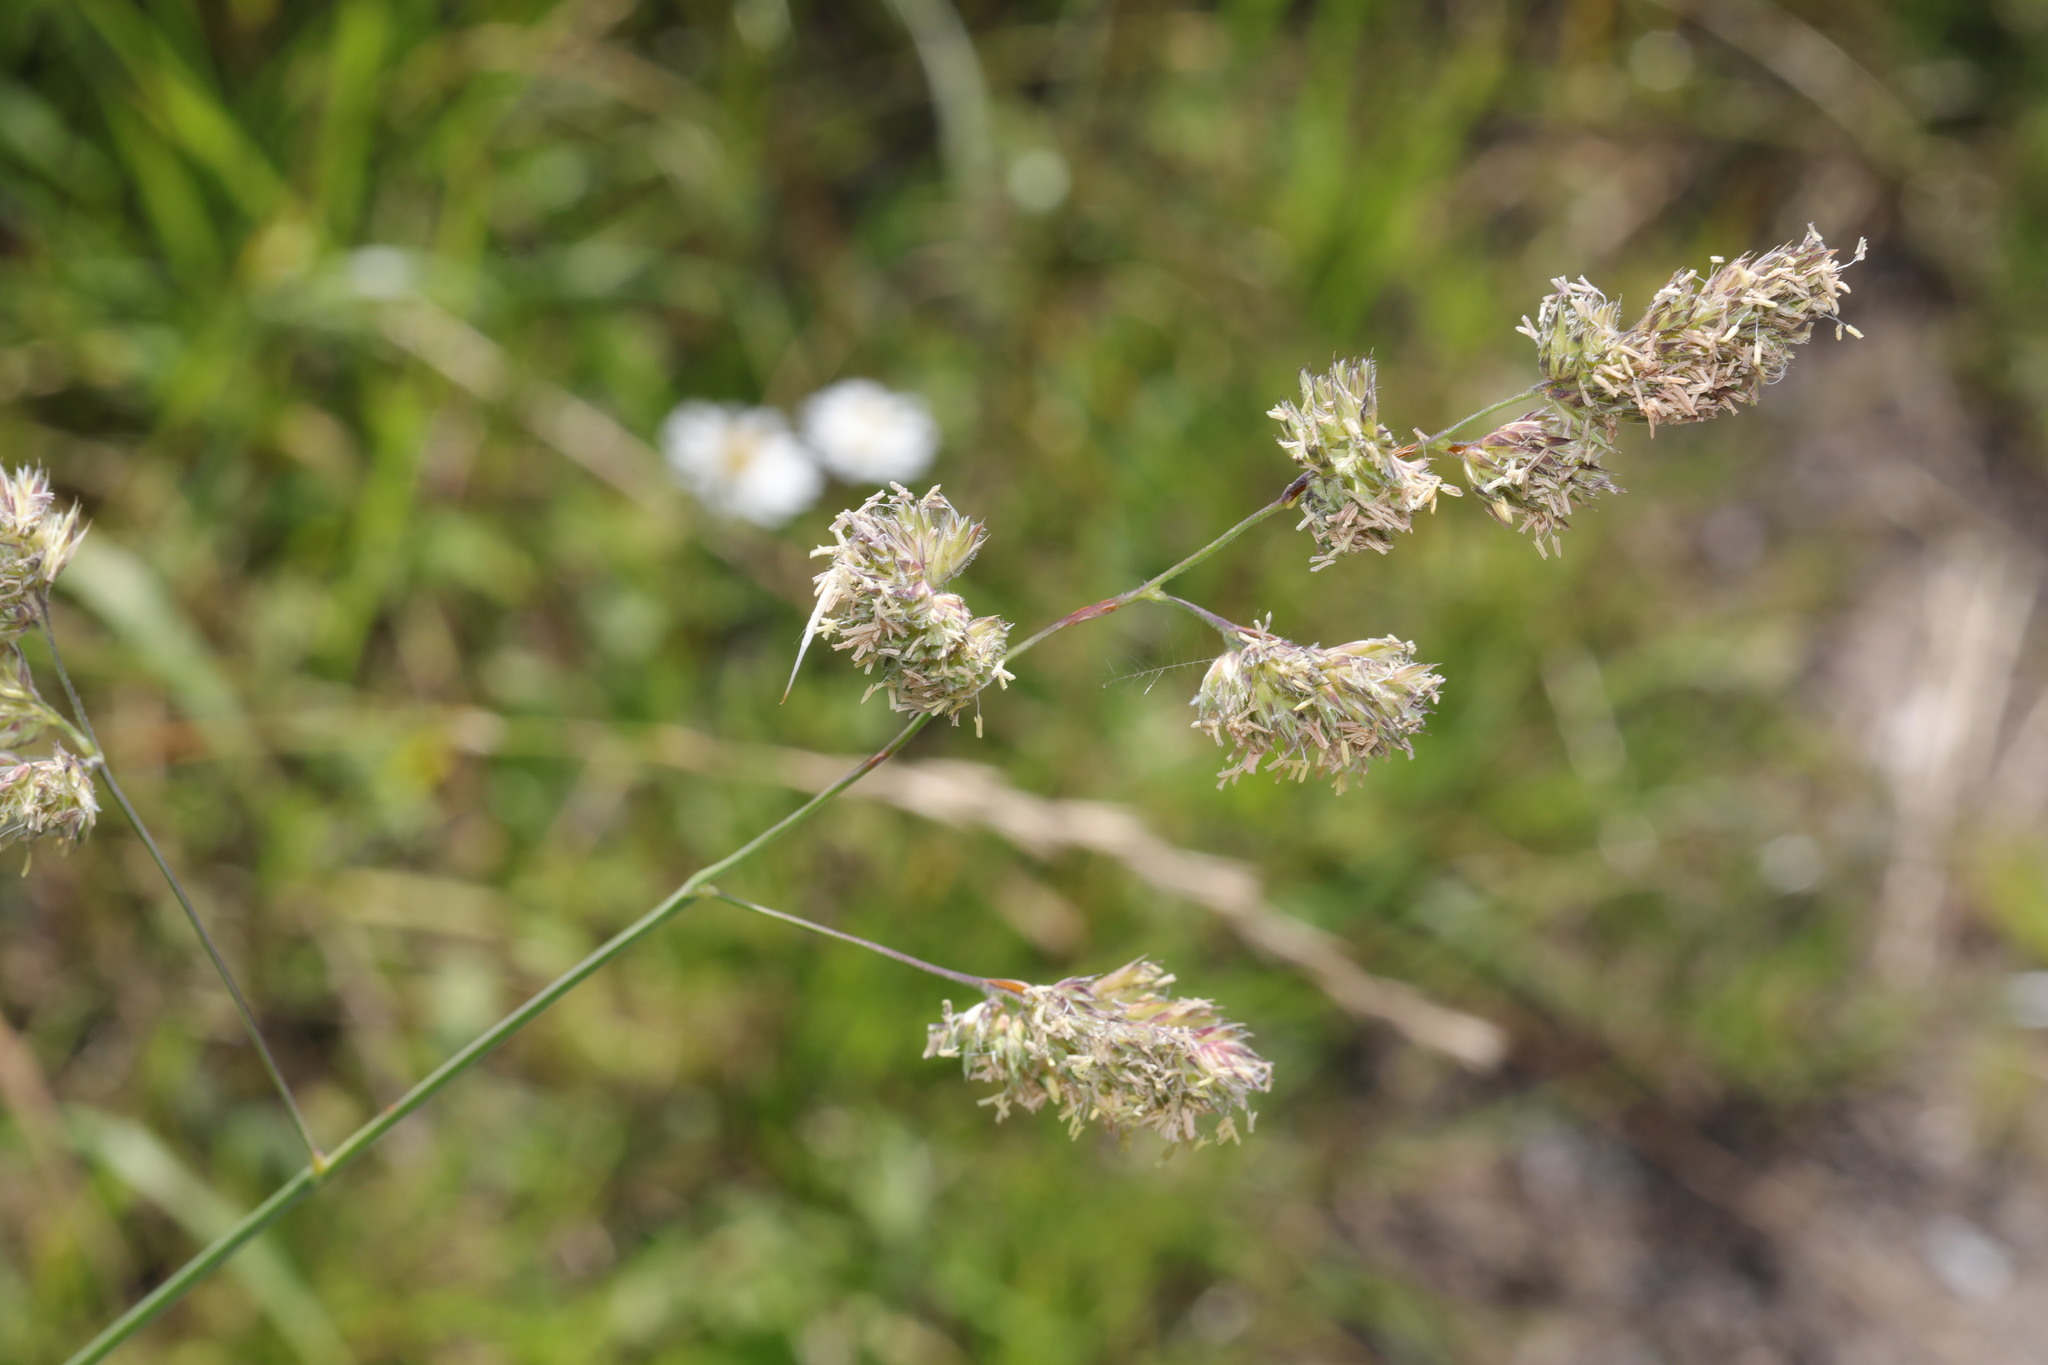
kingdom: Plantae
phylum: Tracheophyta
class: Liliopsida
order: Poales
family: Poaceae
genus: Dactylis
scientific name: Dactylis glomerata
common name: Orchardgrass
